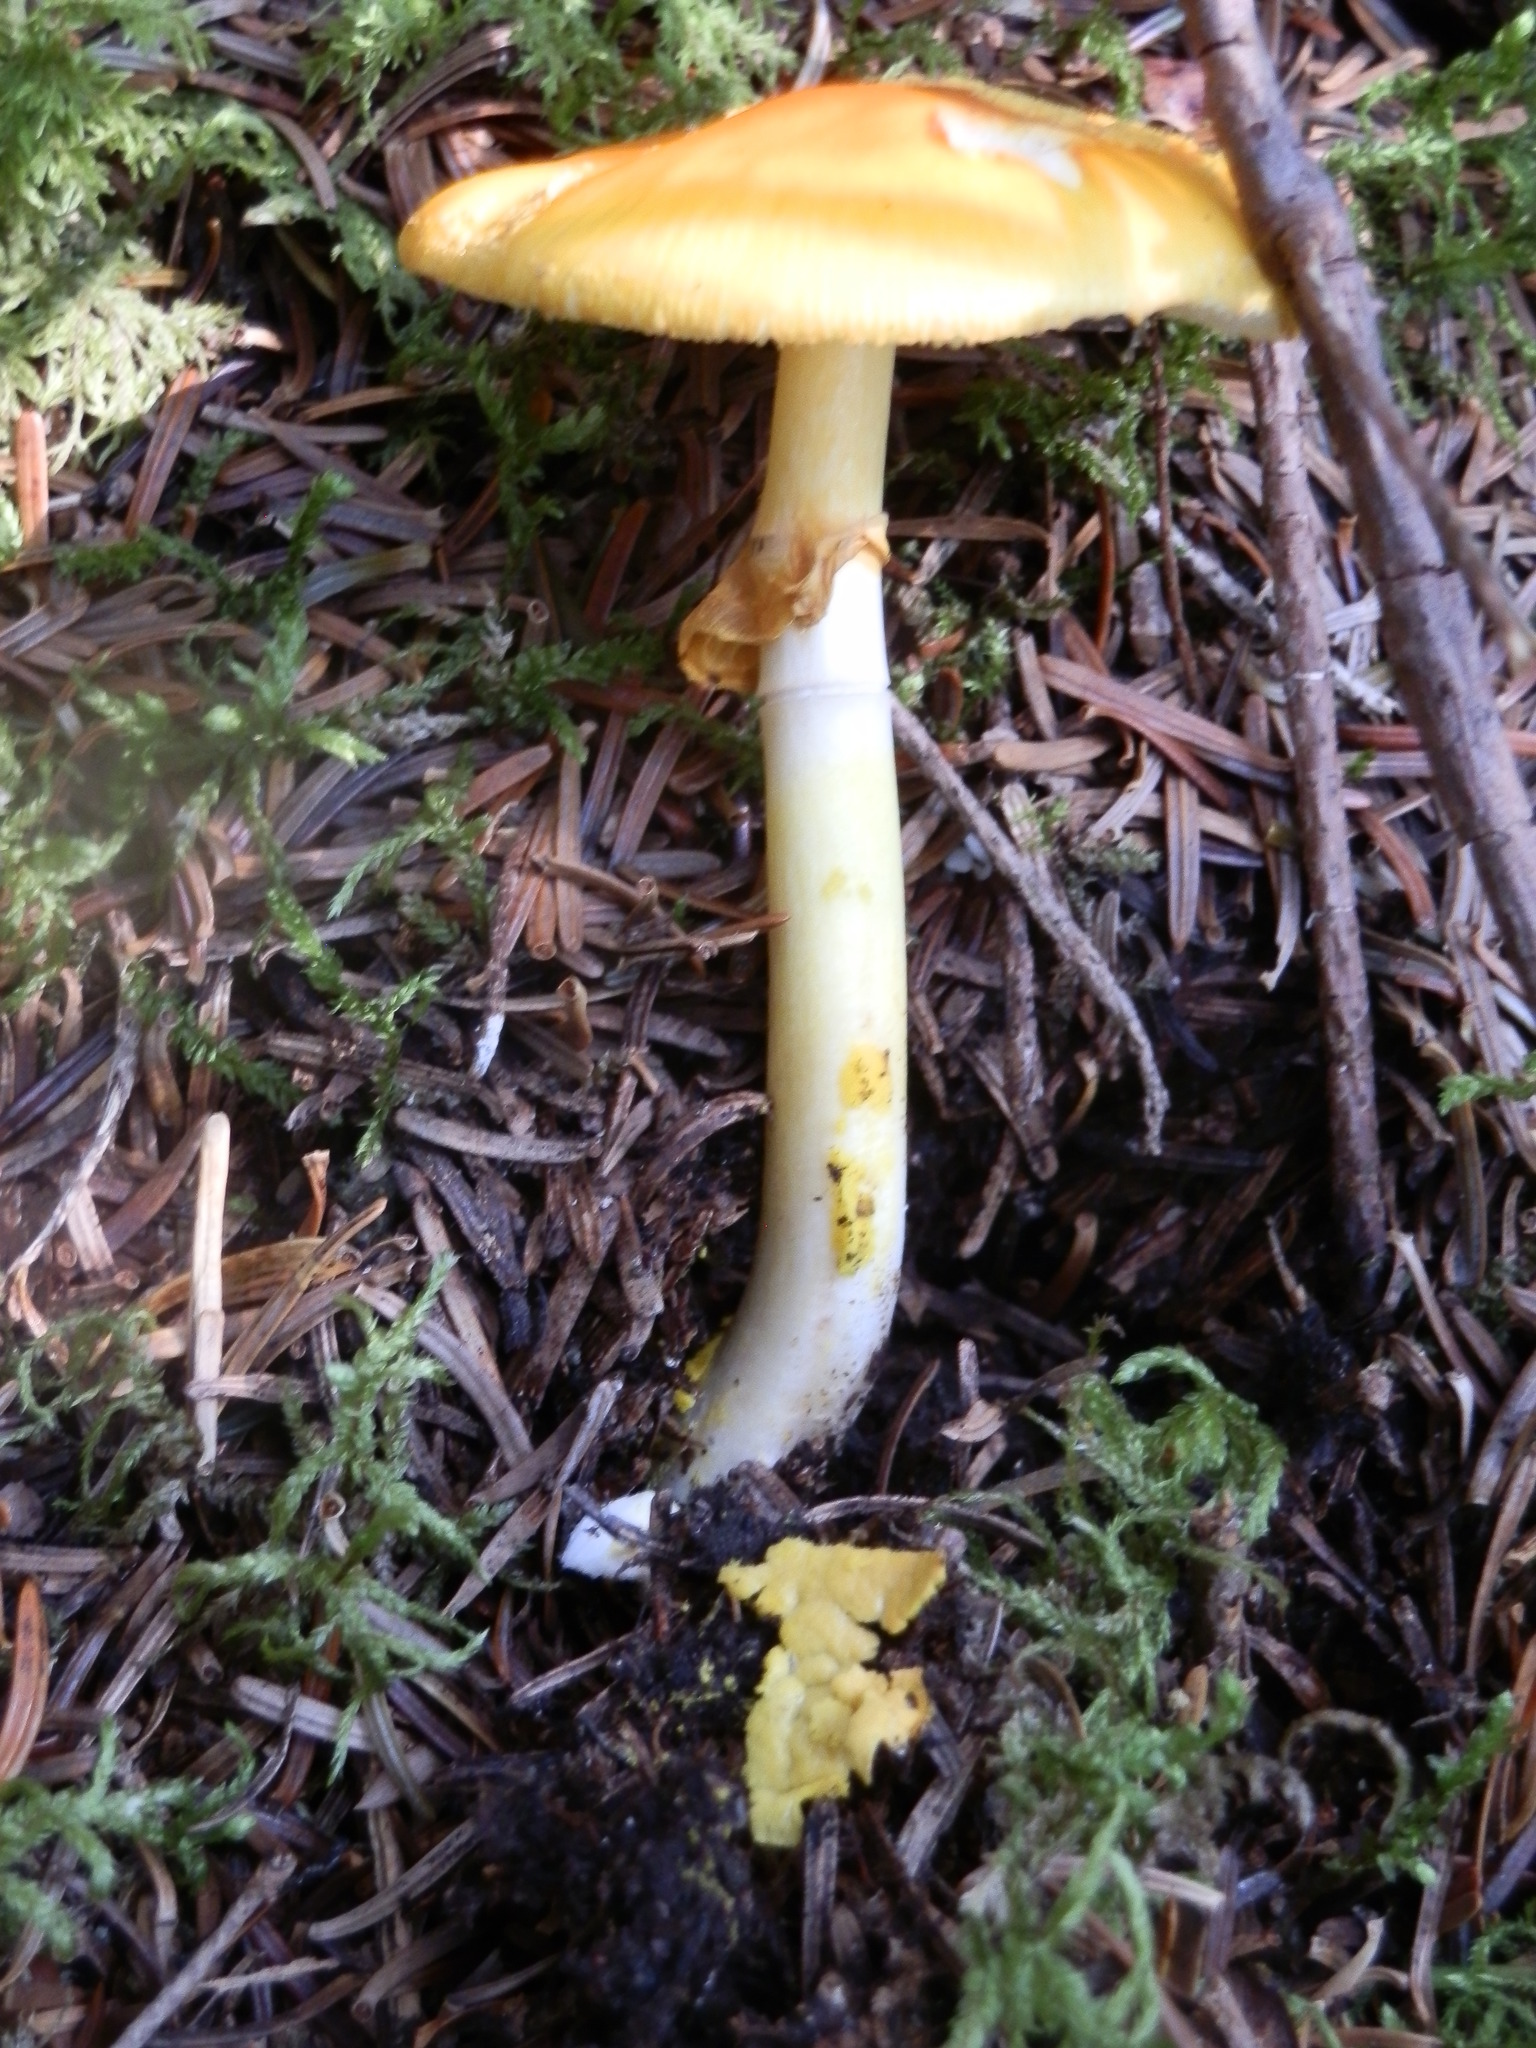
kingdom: Fungi
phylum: Basidiomycota
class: Agaricomycetes
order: Agaricales
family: Amanitaceae
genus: Amanita
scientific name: Amanita flavoconia
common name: Yellow patches
